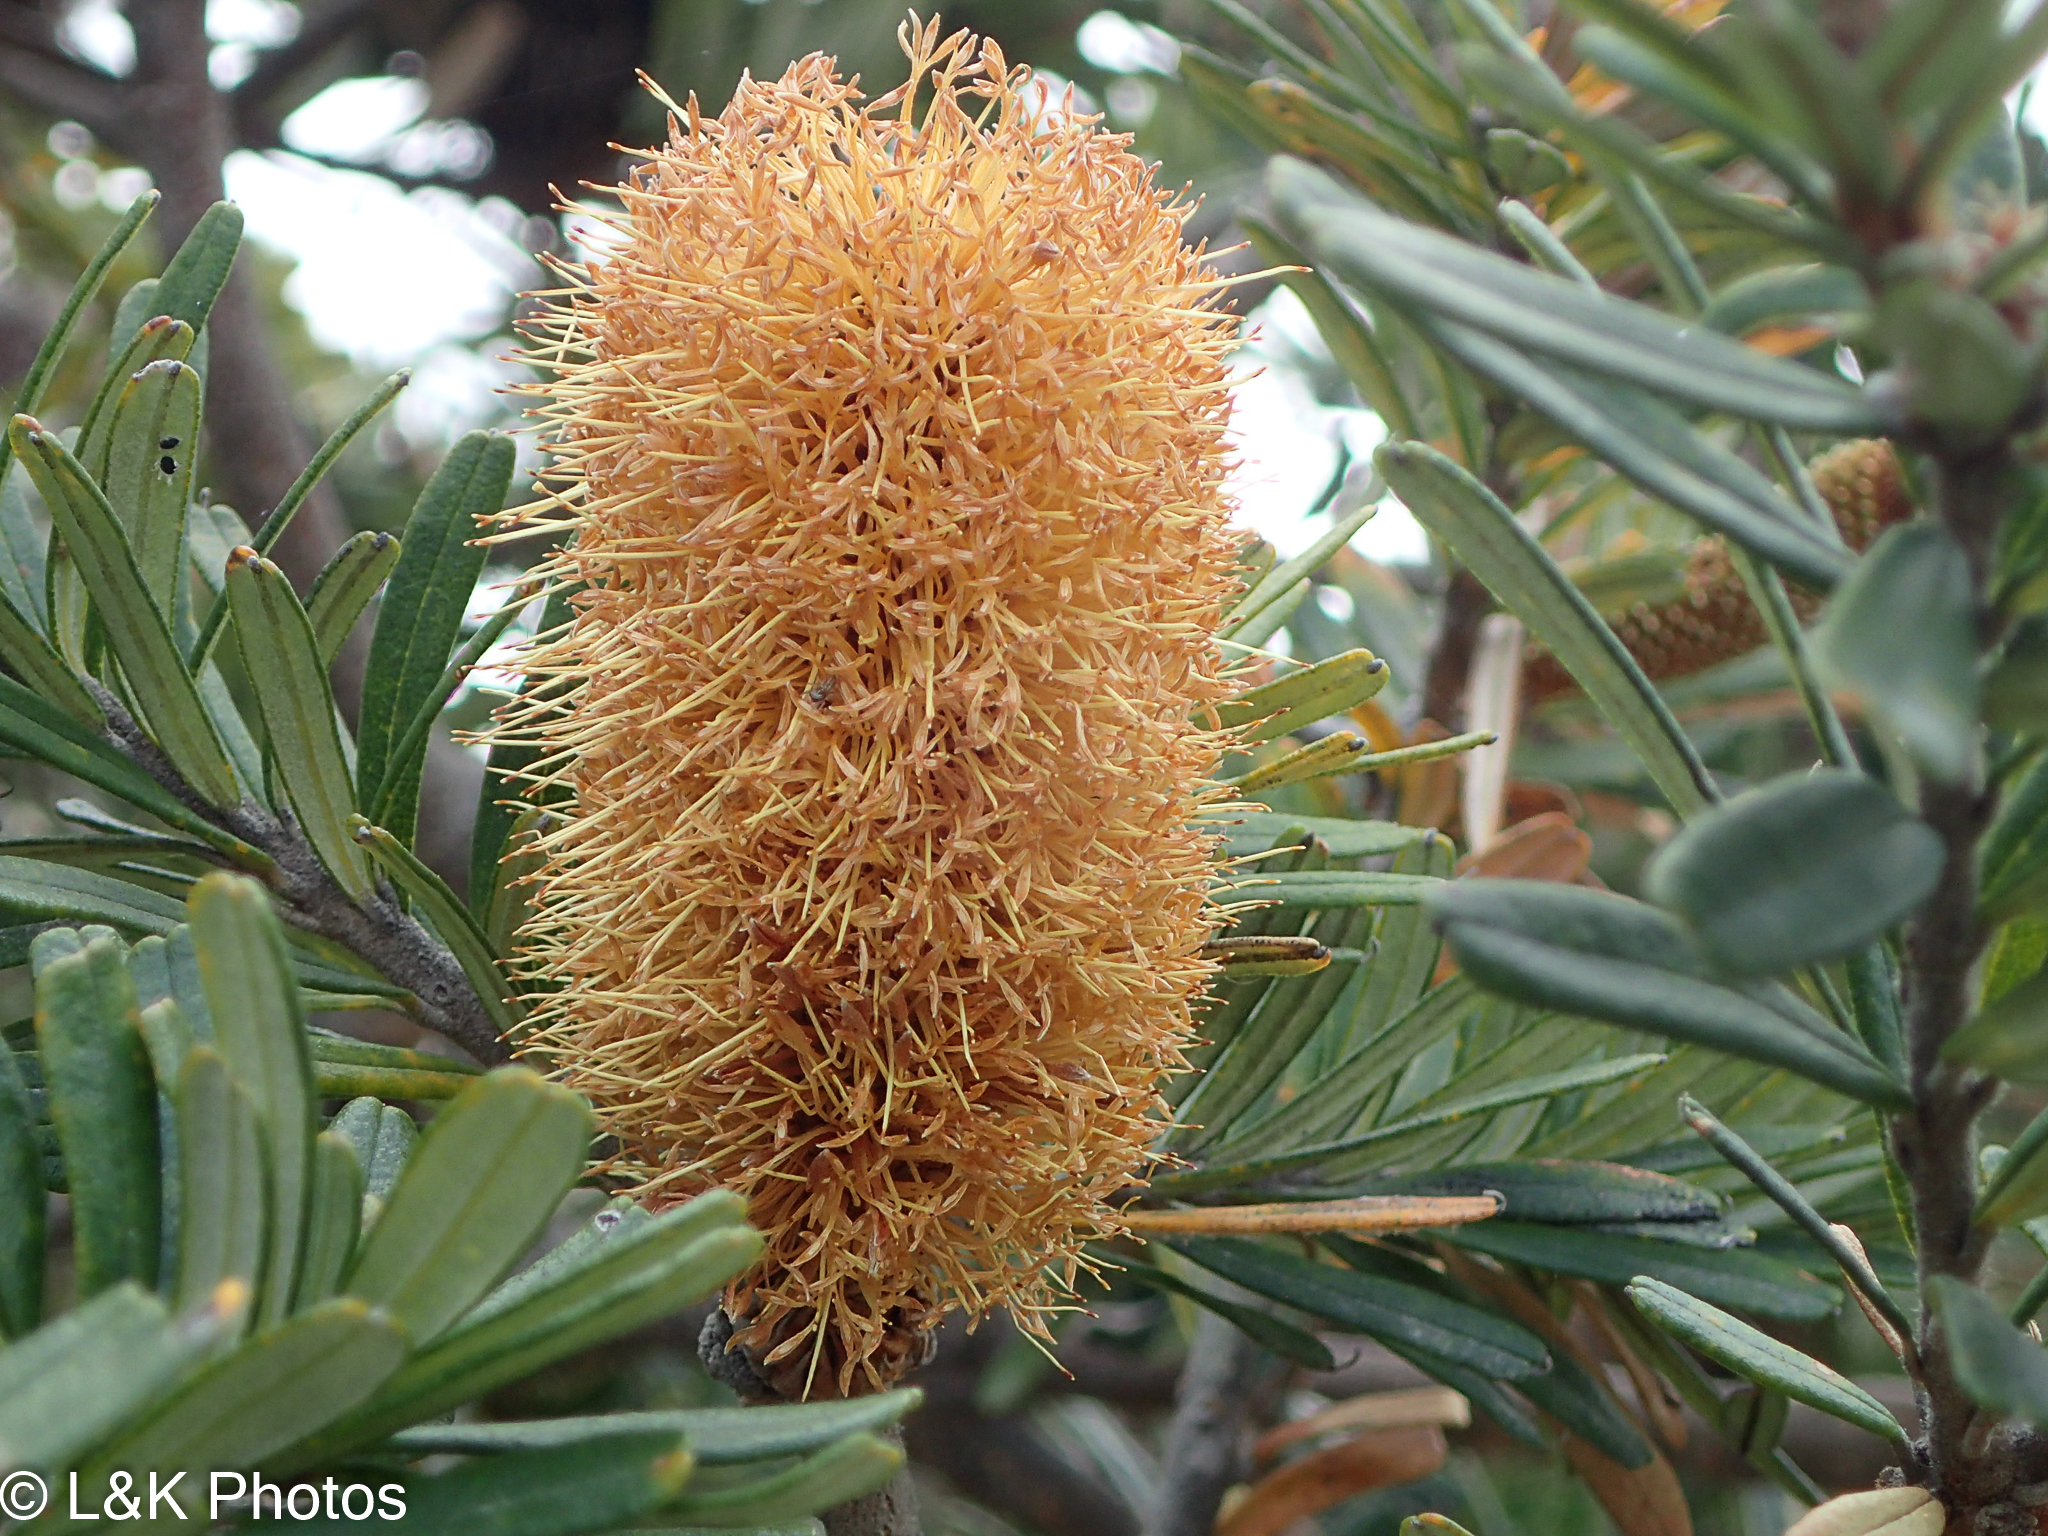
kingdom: Plantae
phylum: Tracheophyta
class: Magnoliopsida
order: Proteales
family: Proteaceae
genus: Banksia
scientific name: Banksia marginata
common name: Silver banksia
